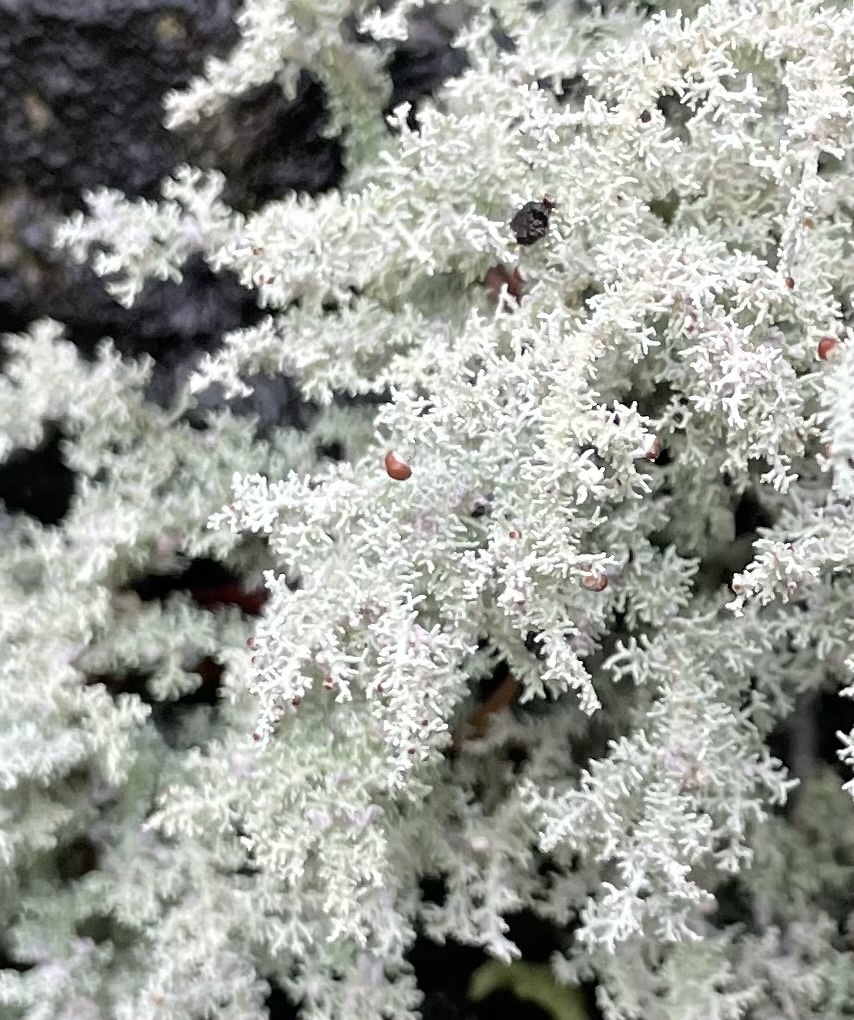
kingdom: Fungi
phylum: Ascomycota
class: Lecanoromycetes
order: Lecanorales
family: Stereocaulaceae
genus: Stereocaulon
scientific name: Stereocaulon ramulosum
